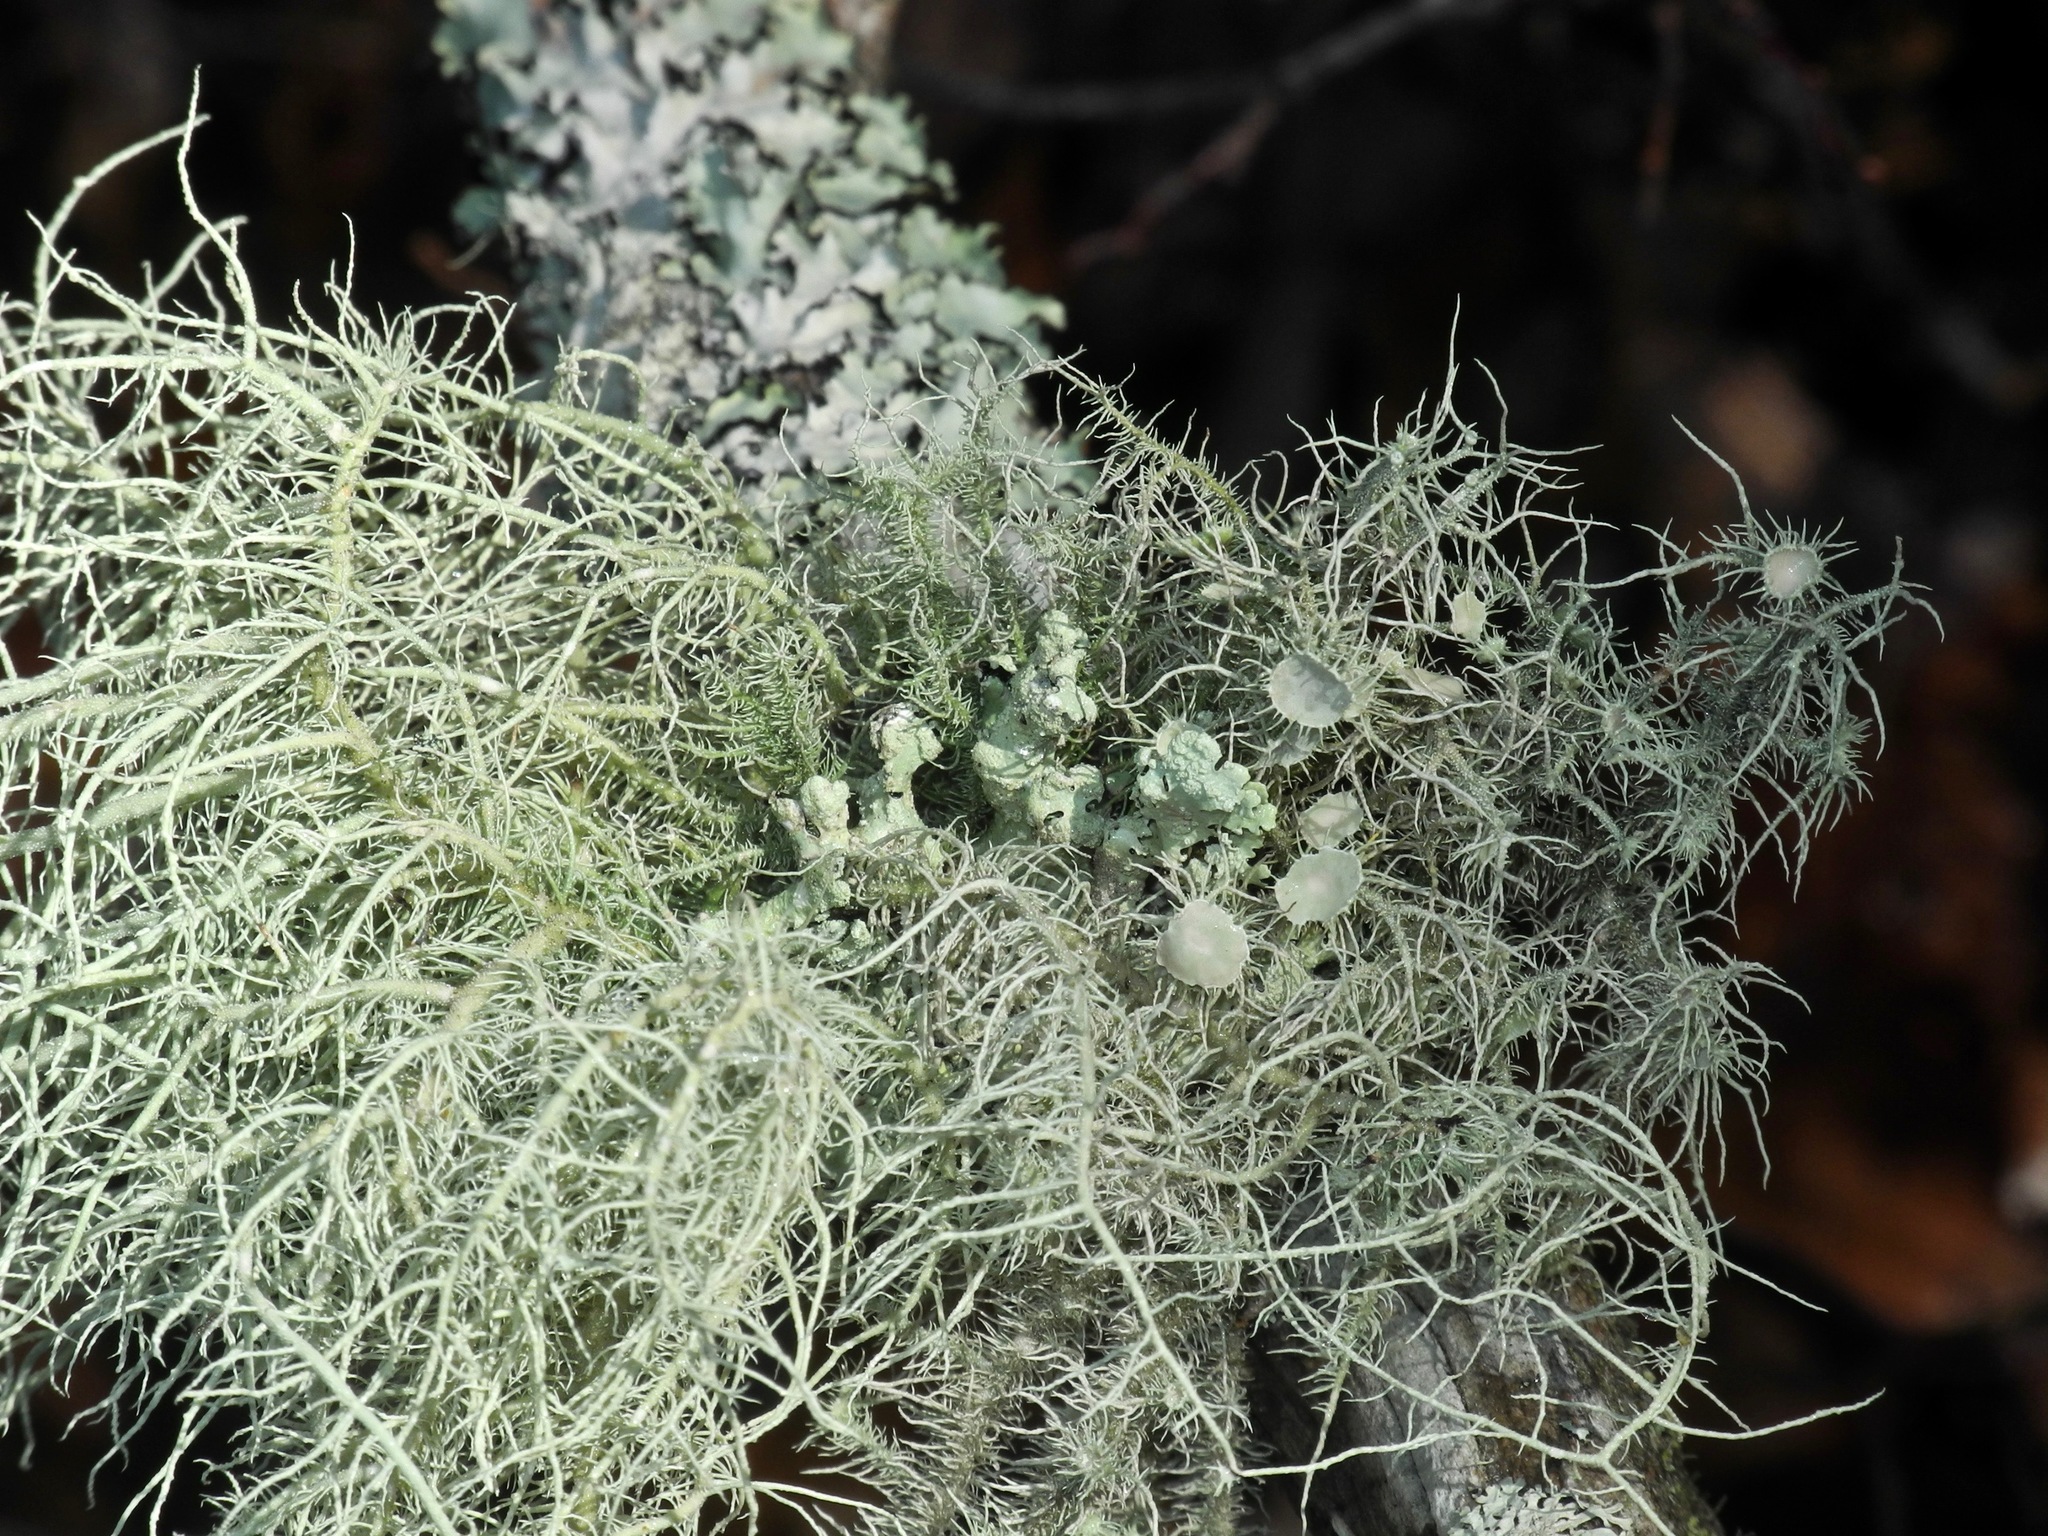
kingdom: Fungi
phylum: Ascomycota
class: Lecanoromycetes
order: Lecanorales
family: Parmeliaceae
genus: Usnea
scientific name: Usnea strigosa
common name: Bushy beard lichen
